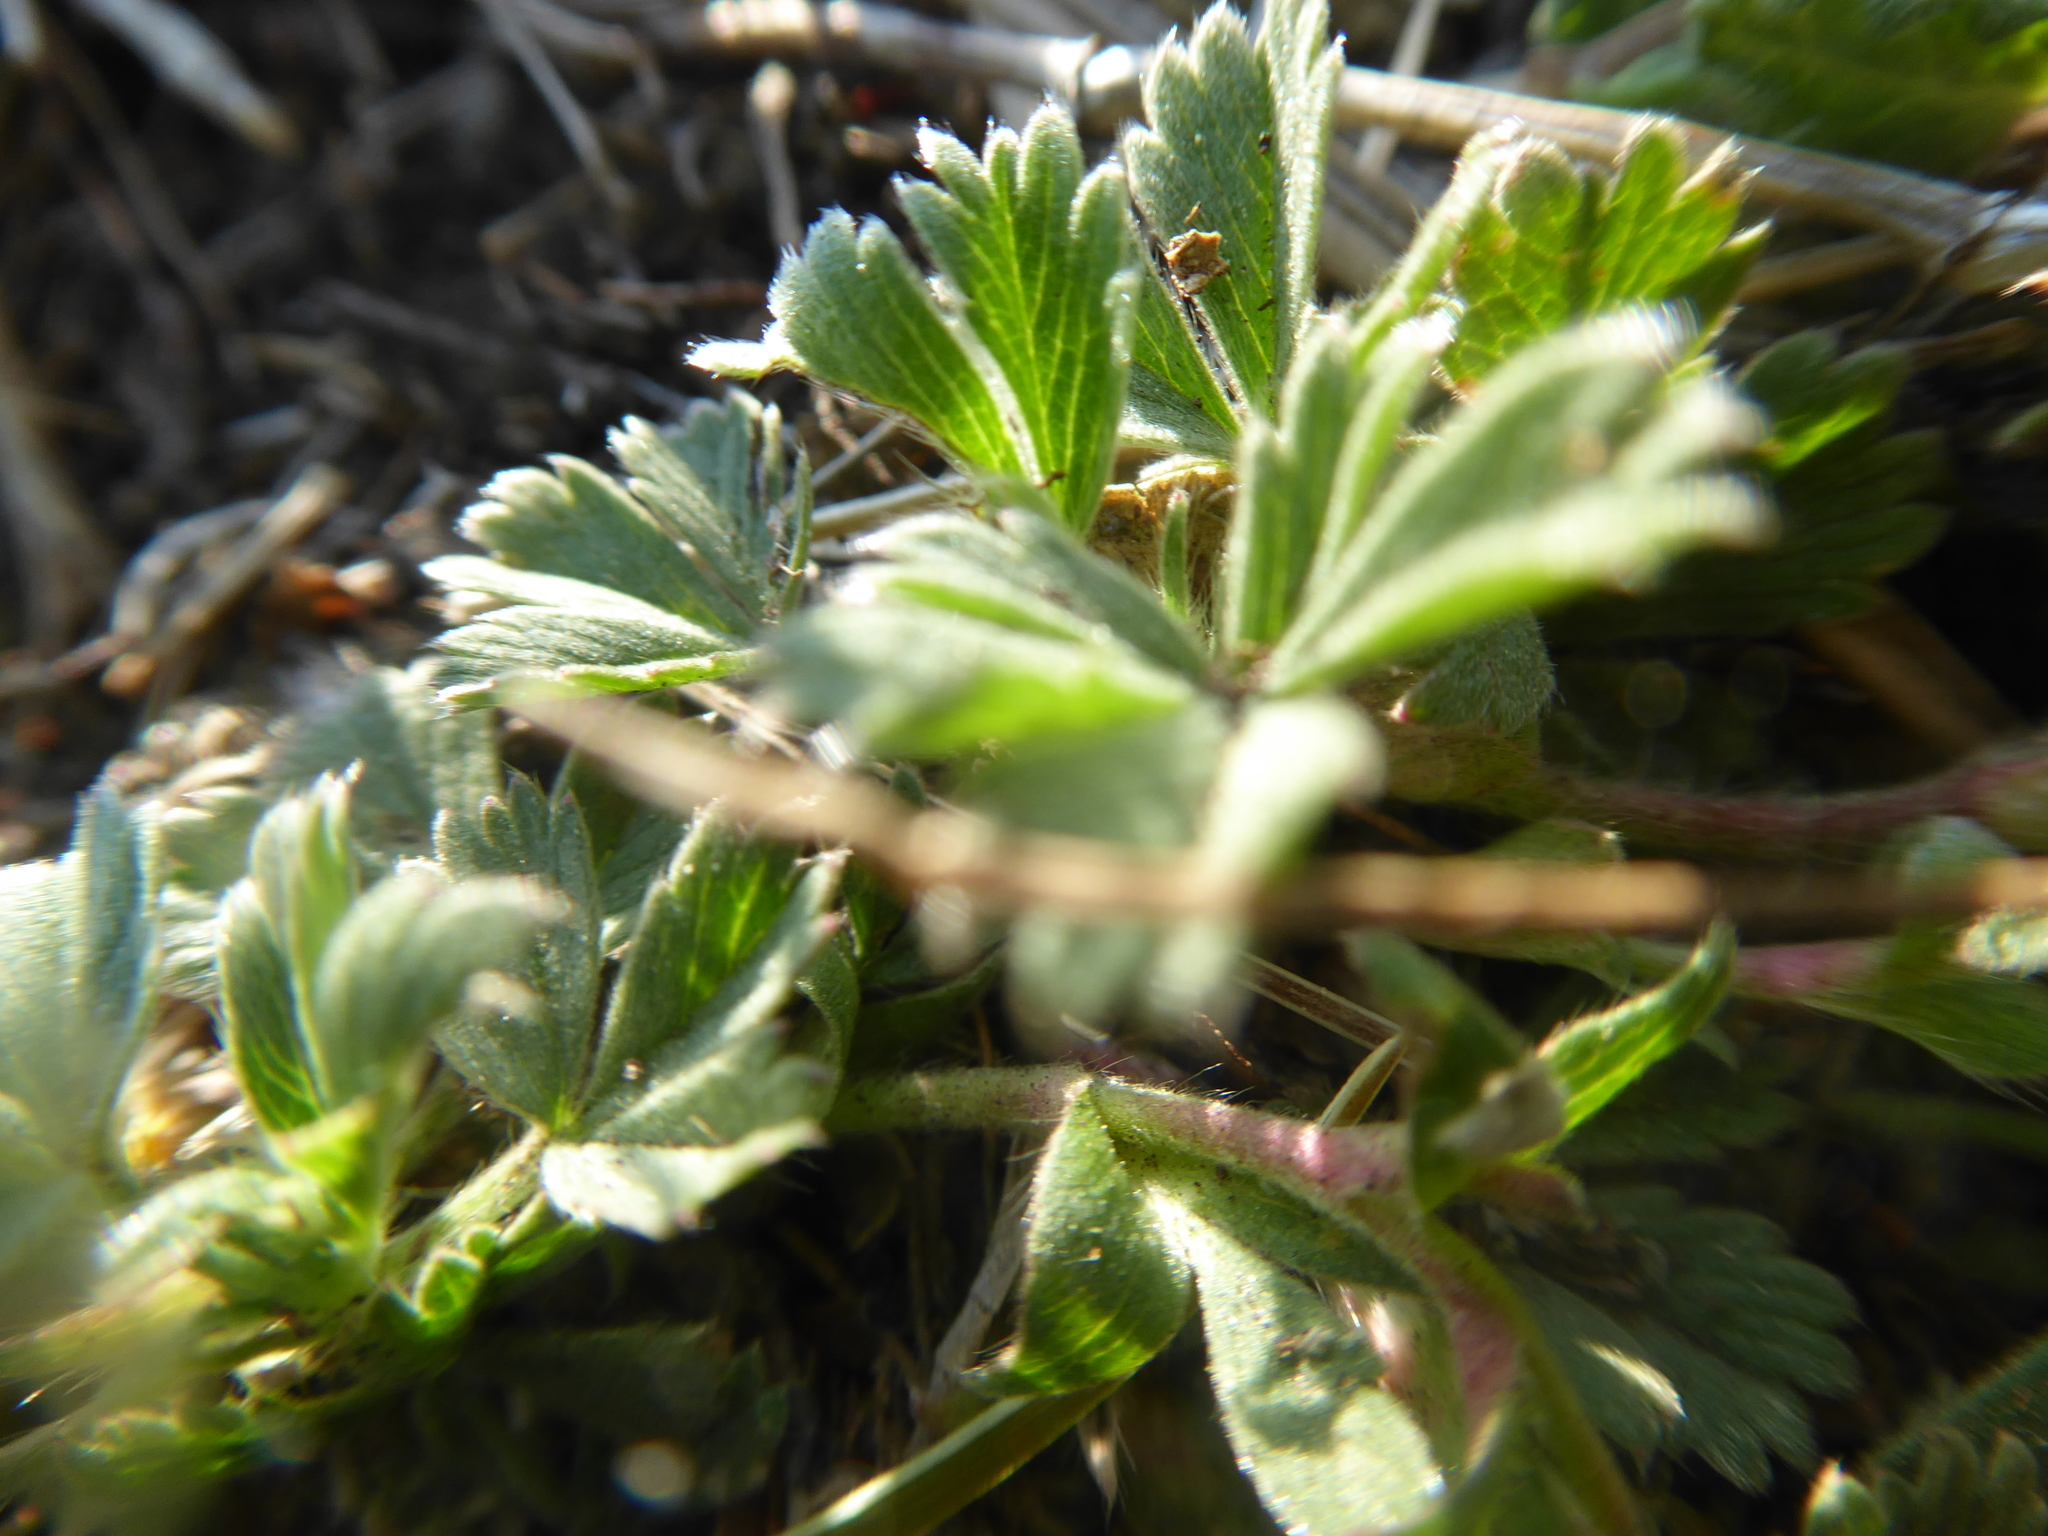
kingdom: Plantae
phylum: Tracheophyta
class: Magnoliopsida
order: Rosales
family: Rosaceae
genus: Potentilla
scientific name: Potentilla incana
